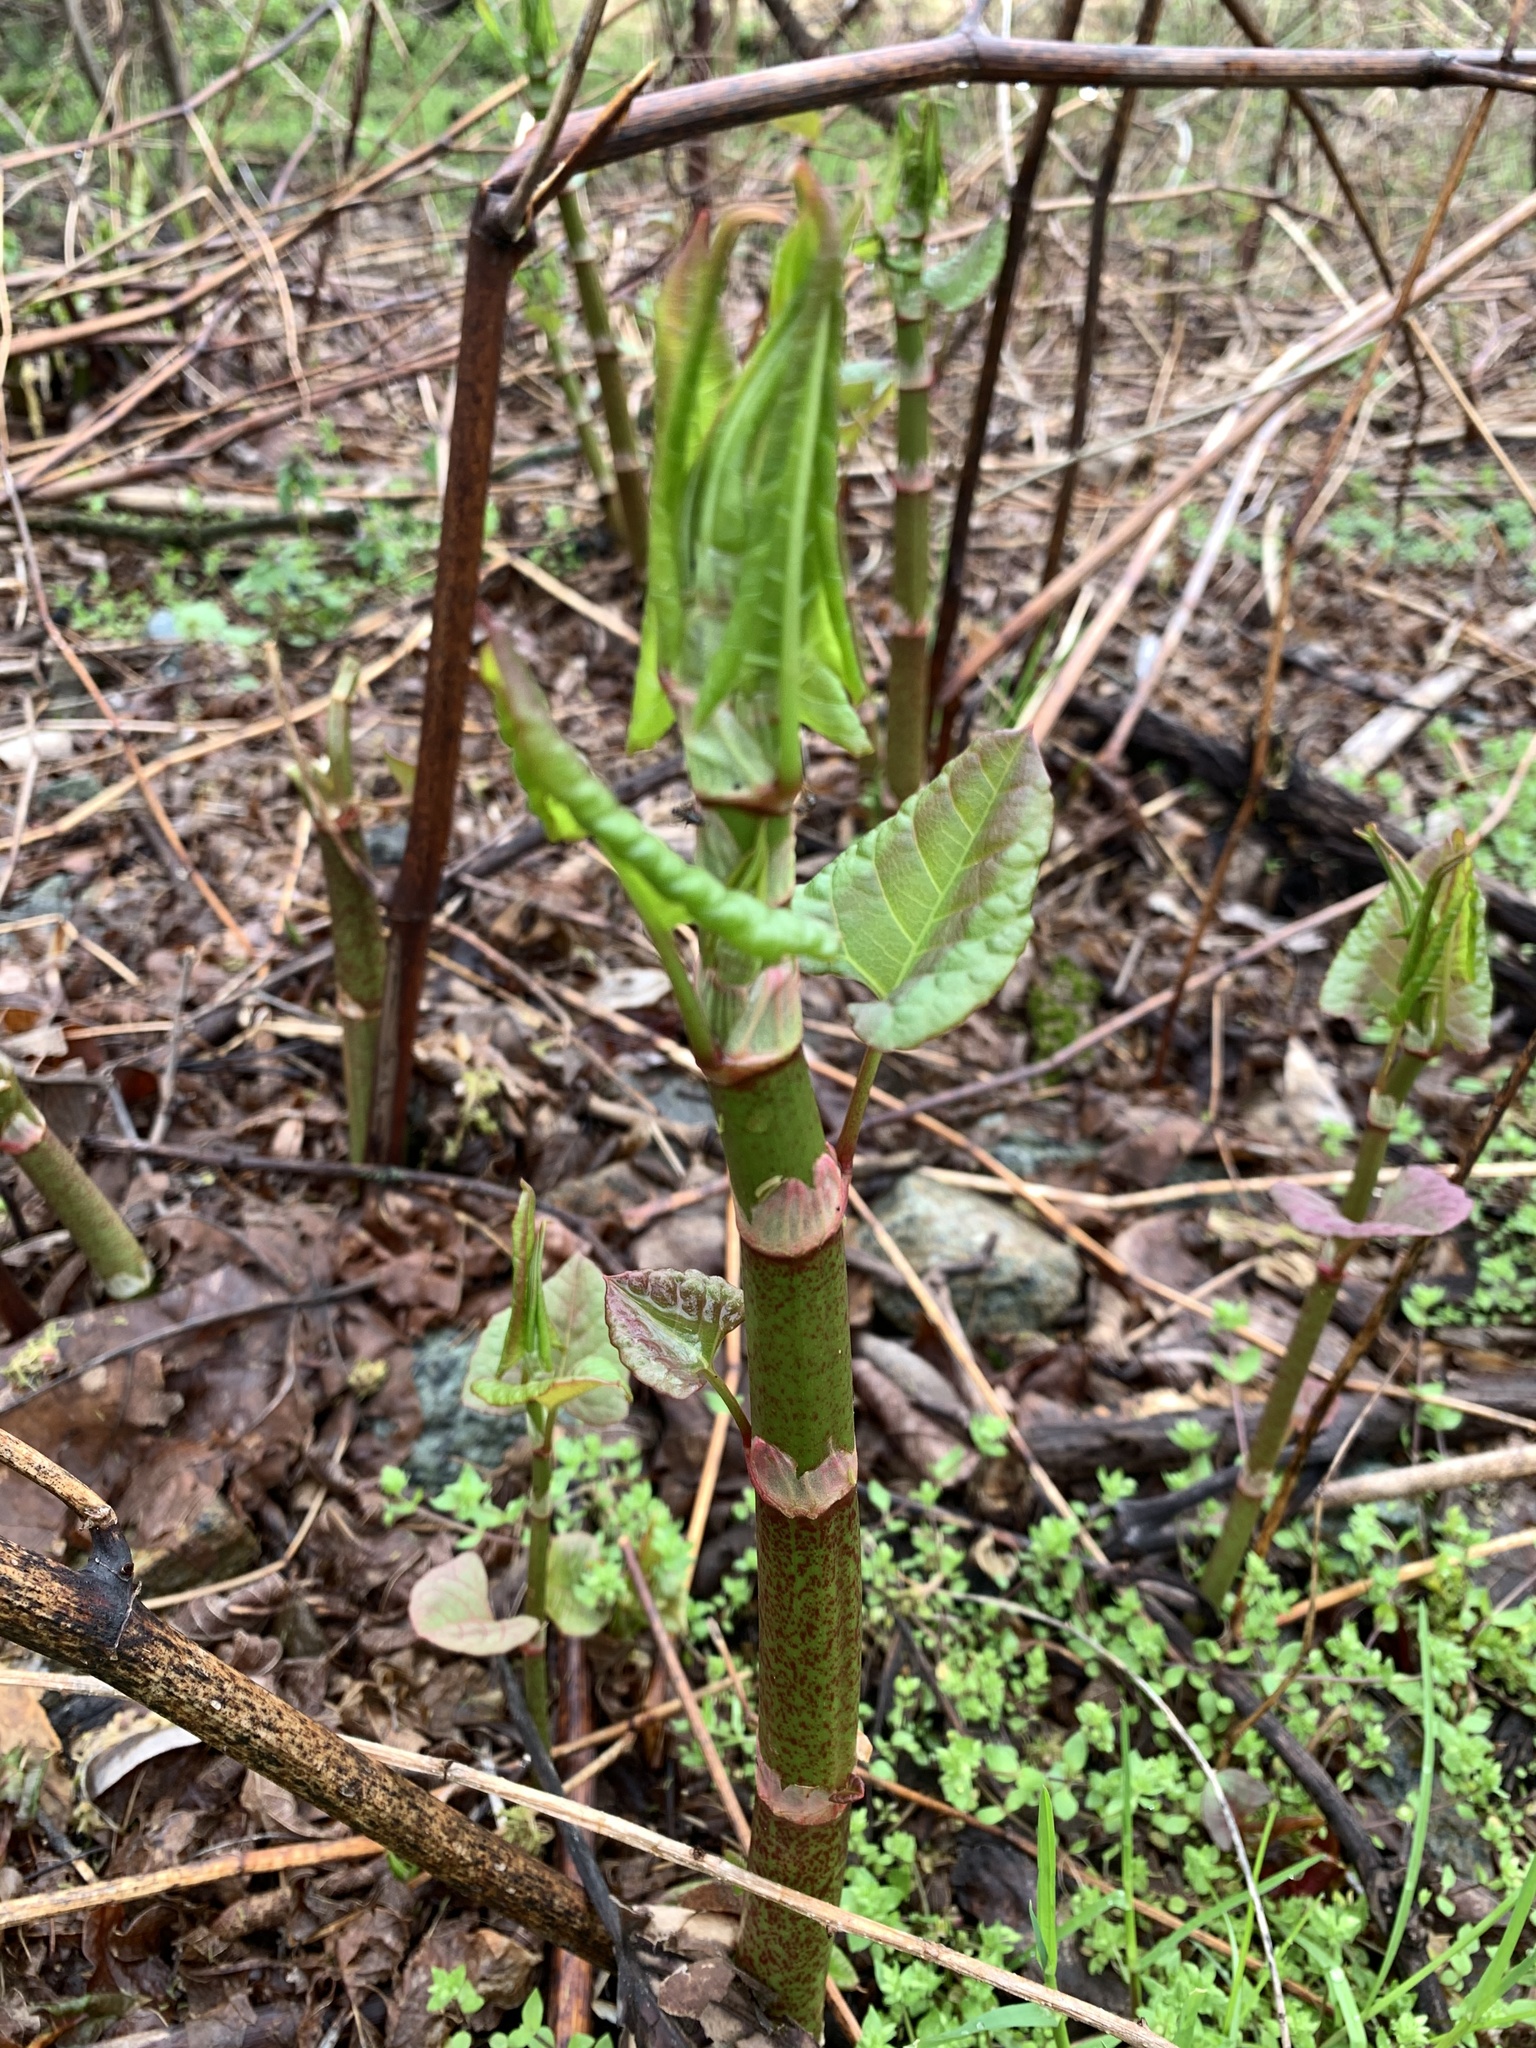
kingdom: Plantae
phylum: Tracheophyta
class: Magnoliopsida
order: Caryophyllales
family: Polygonaceae
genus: Reynoutria
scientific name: Reynoutria japonica
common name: Japanese knotweed
